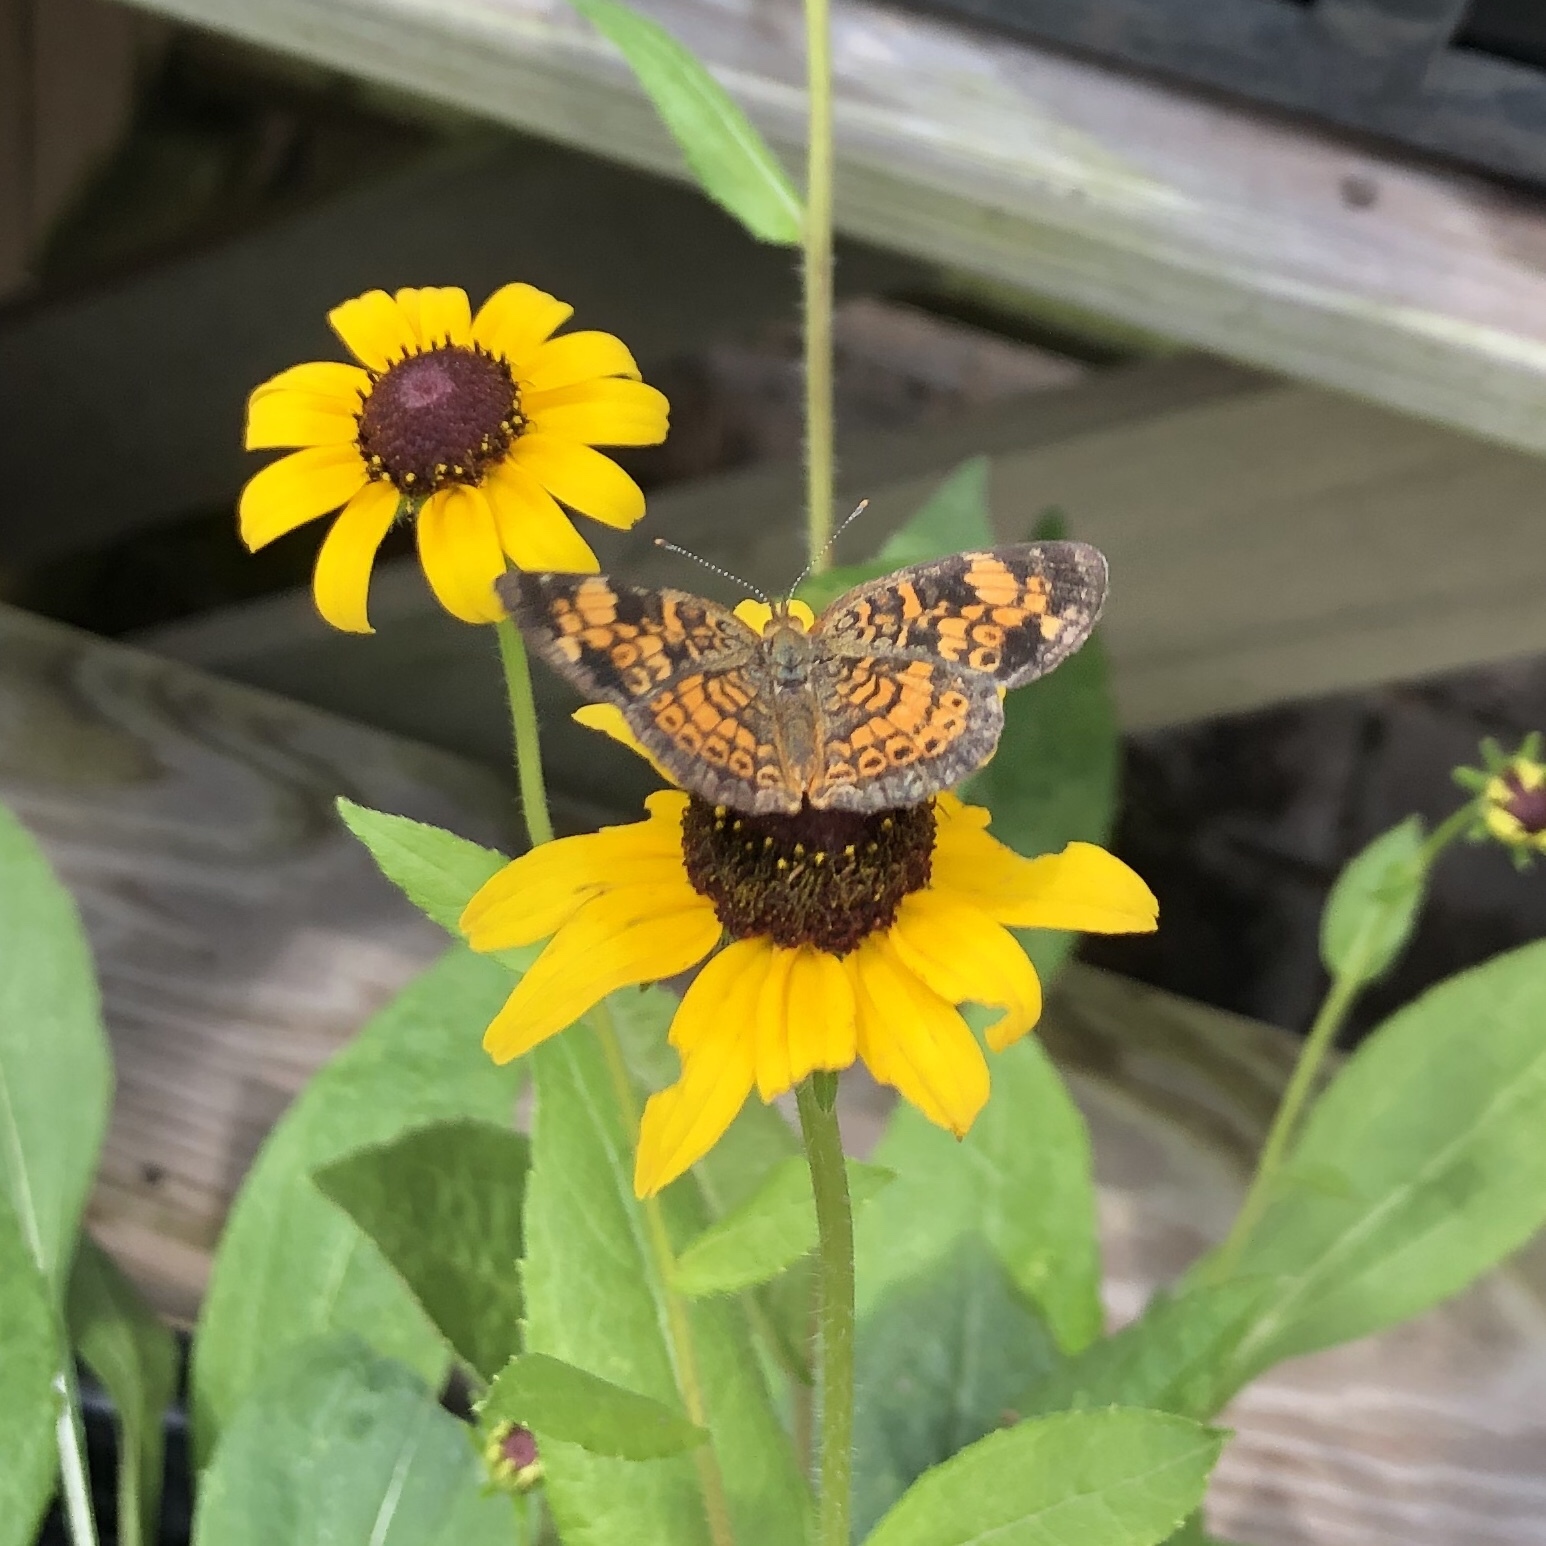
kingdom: Animalia
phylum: Arthropoda
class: Insecta
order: Lepidoptera
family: Nymphalidae
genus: Phyciodes
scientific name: Phyciodes tharos
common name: Pearl crescent
